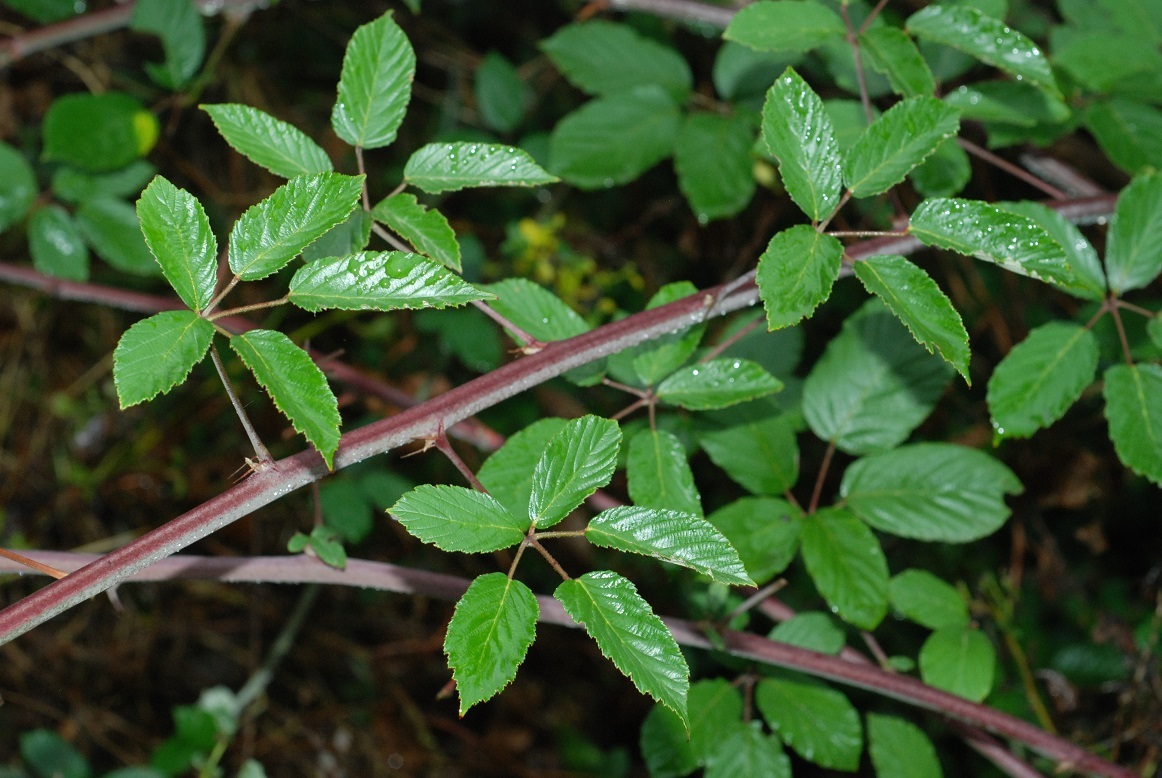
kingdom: Plantae
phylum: Tracheophyta
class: Magnoliopsida
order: Rosales
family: Rosaceae
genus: Rubus
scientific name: Rubus ulmifolius
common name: Elmleaf blackberry
